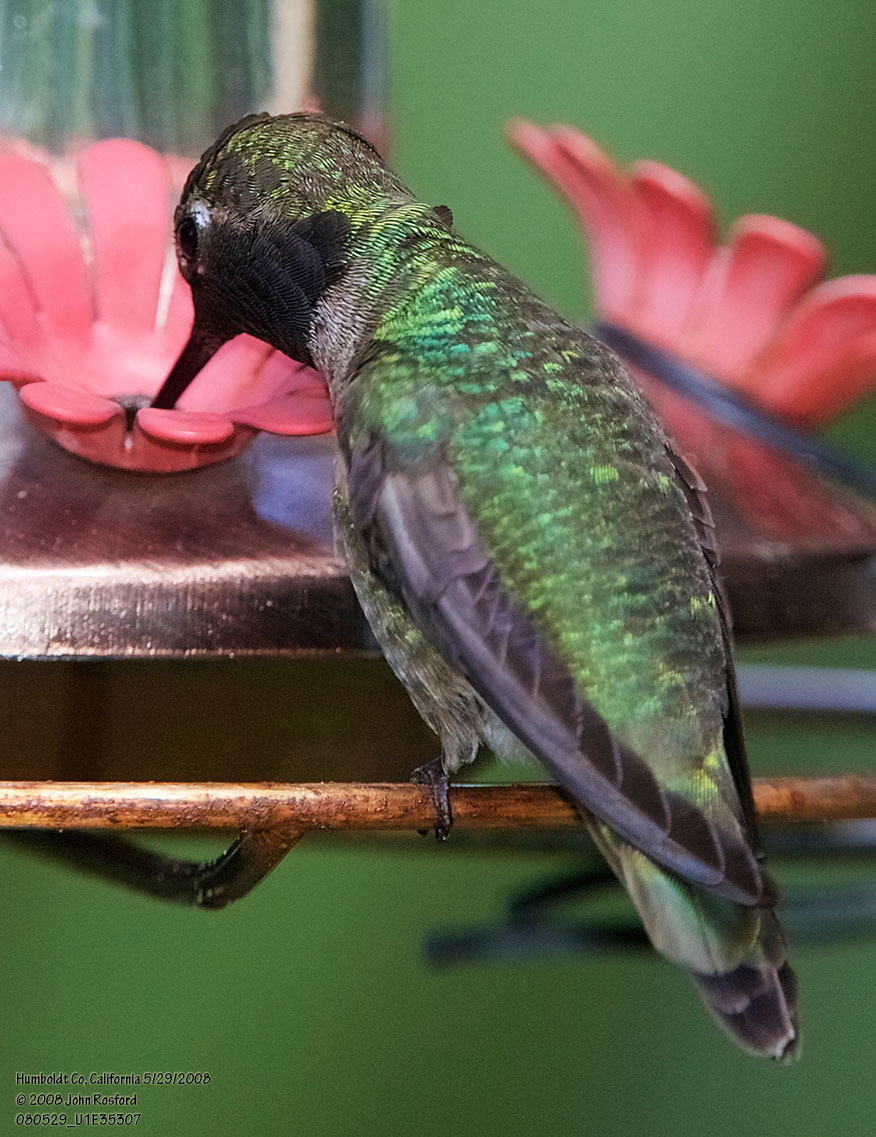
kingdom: Animalia
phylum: Chordata
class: Aves
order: Apodiformes
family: Trochilidae
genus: Calypte
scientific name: Calypte anna
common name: Anna's hummingbird
